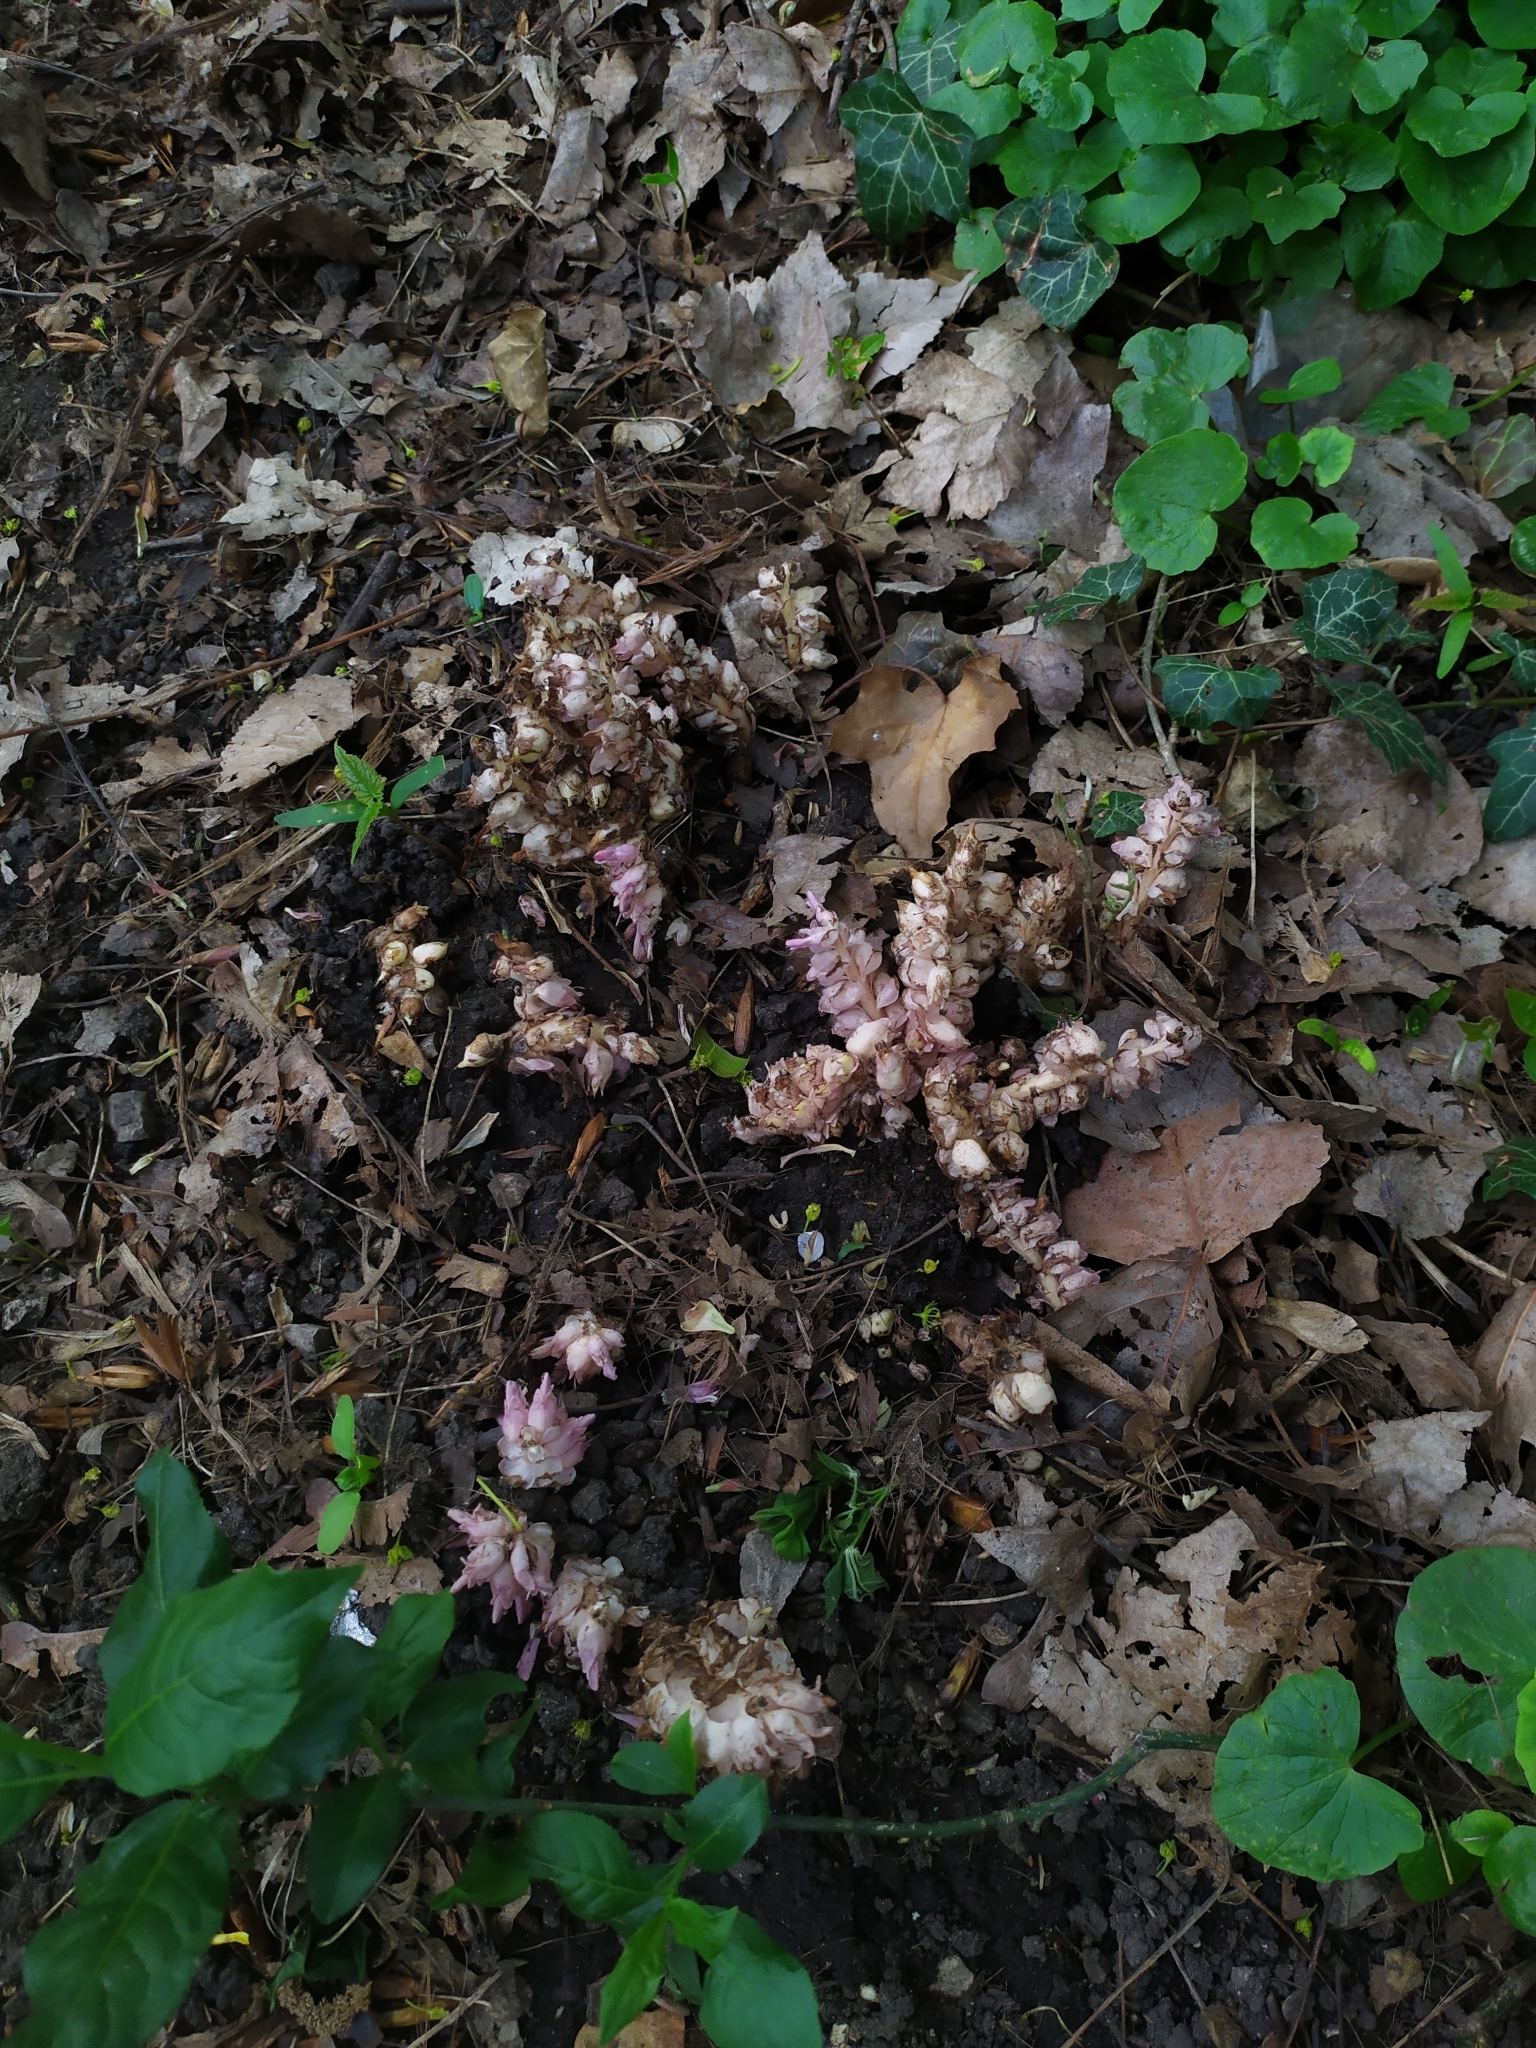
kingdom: Plantae
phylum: Tracheophyta
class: Magnoliopsida
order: Lamiales
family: Orobanchaceae
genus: Lathraea
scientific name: Lathraea squamaria
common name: Toothwort
